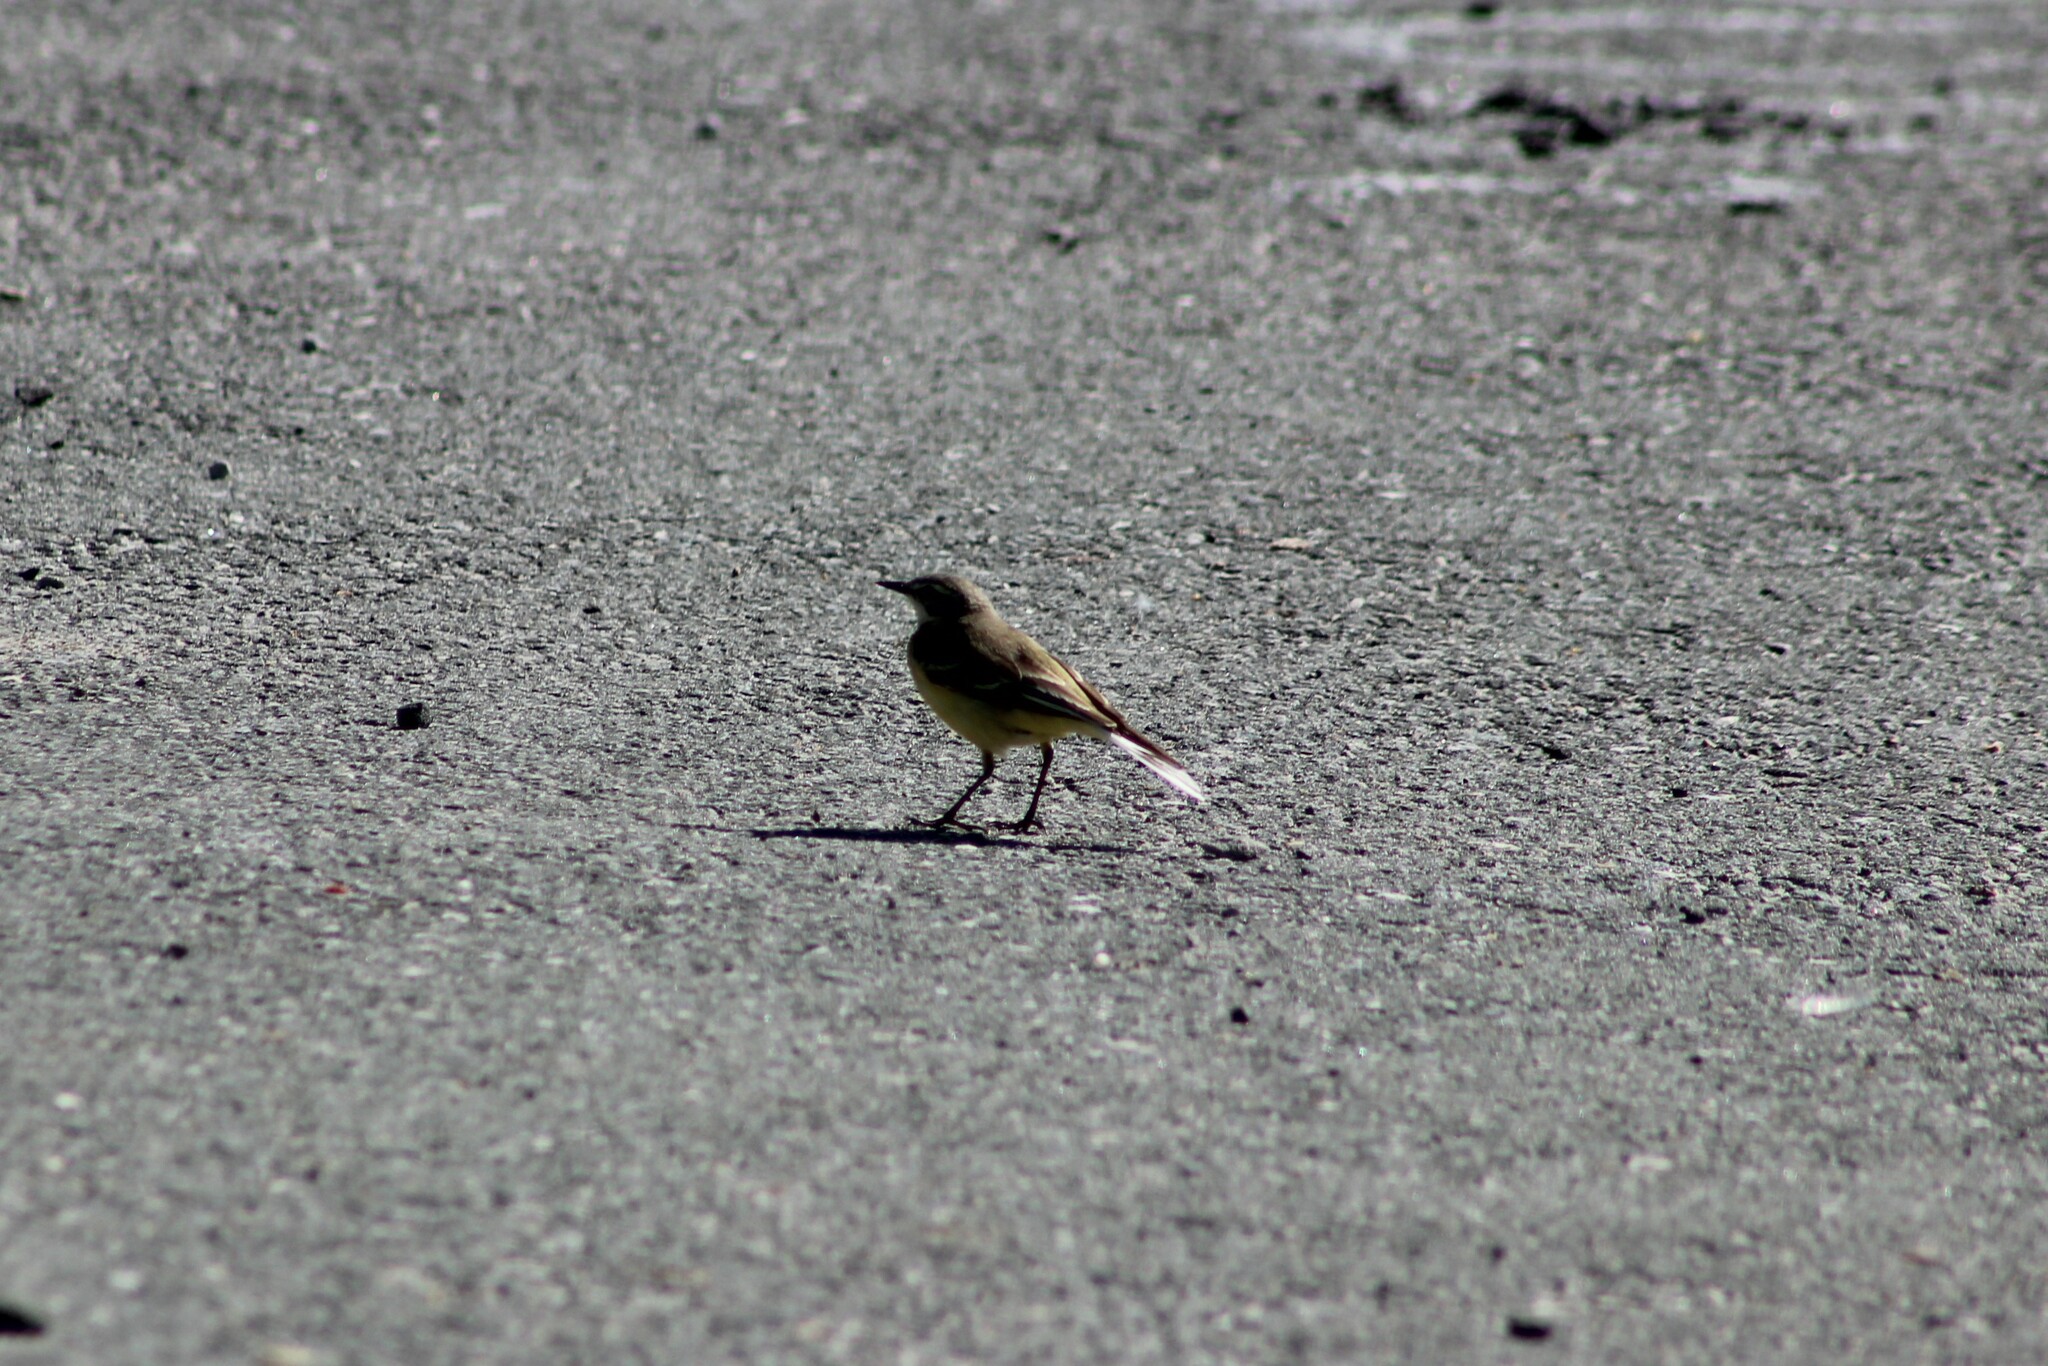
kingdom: Animalia
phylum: Chordata
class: Aves
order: Passeriformes
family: Motacillidae
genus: Motacilla
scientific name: Motacilla flava
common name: Western yellow wagtail
